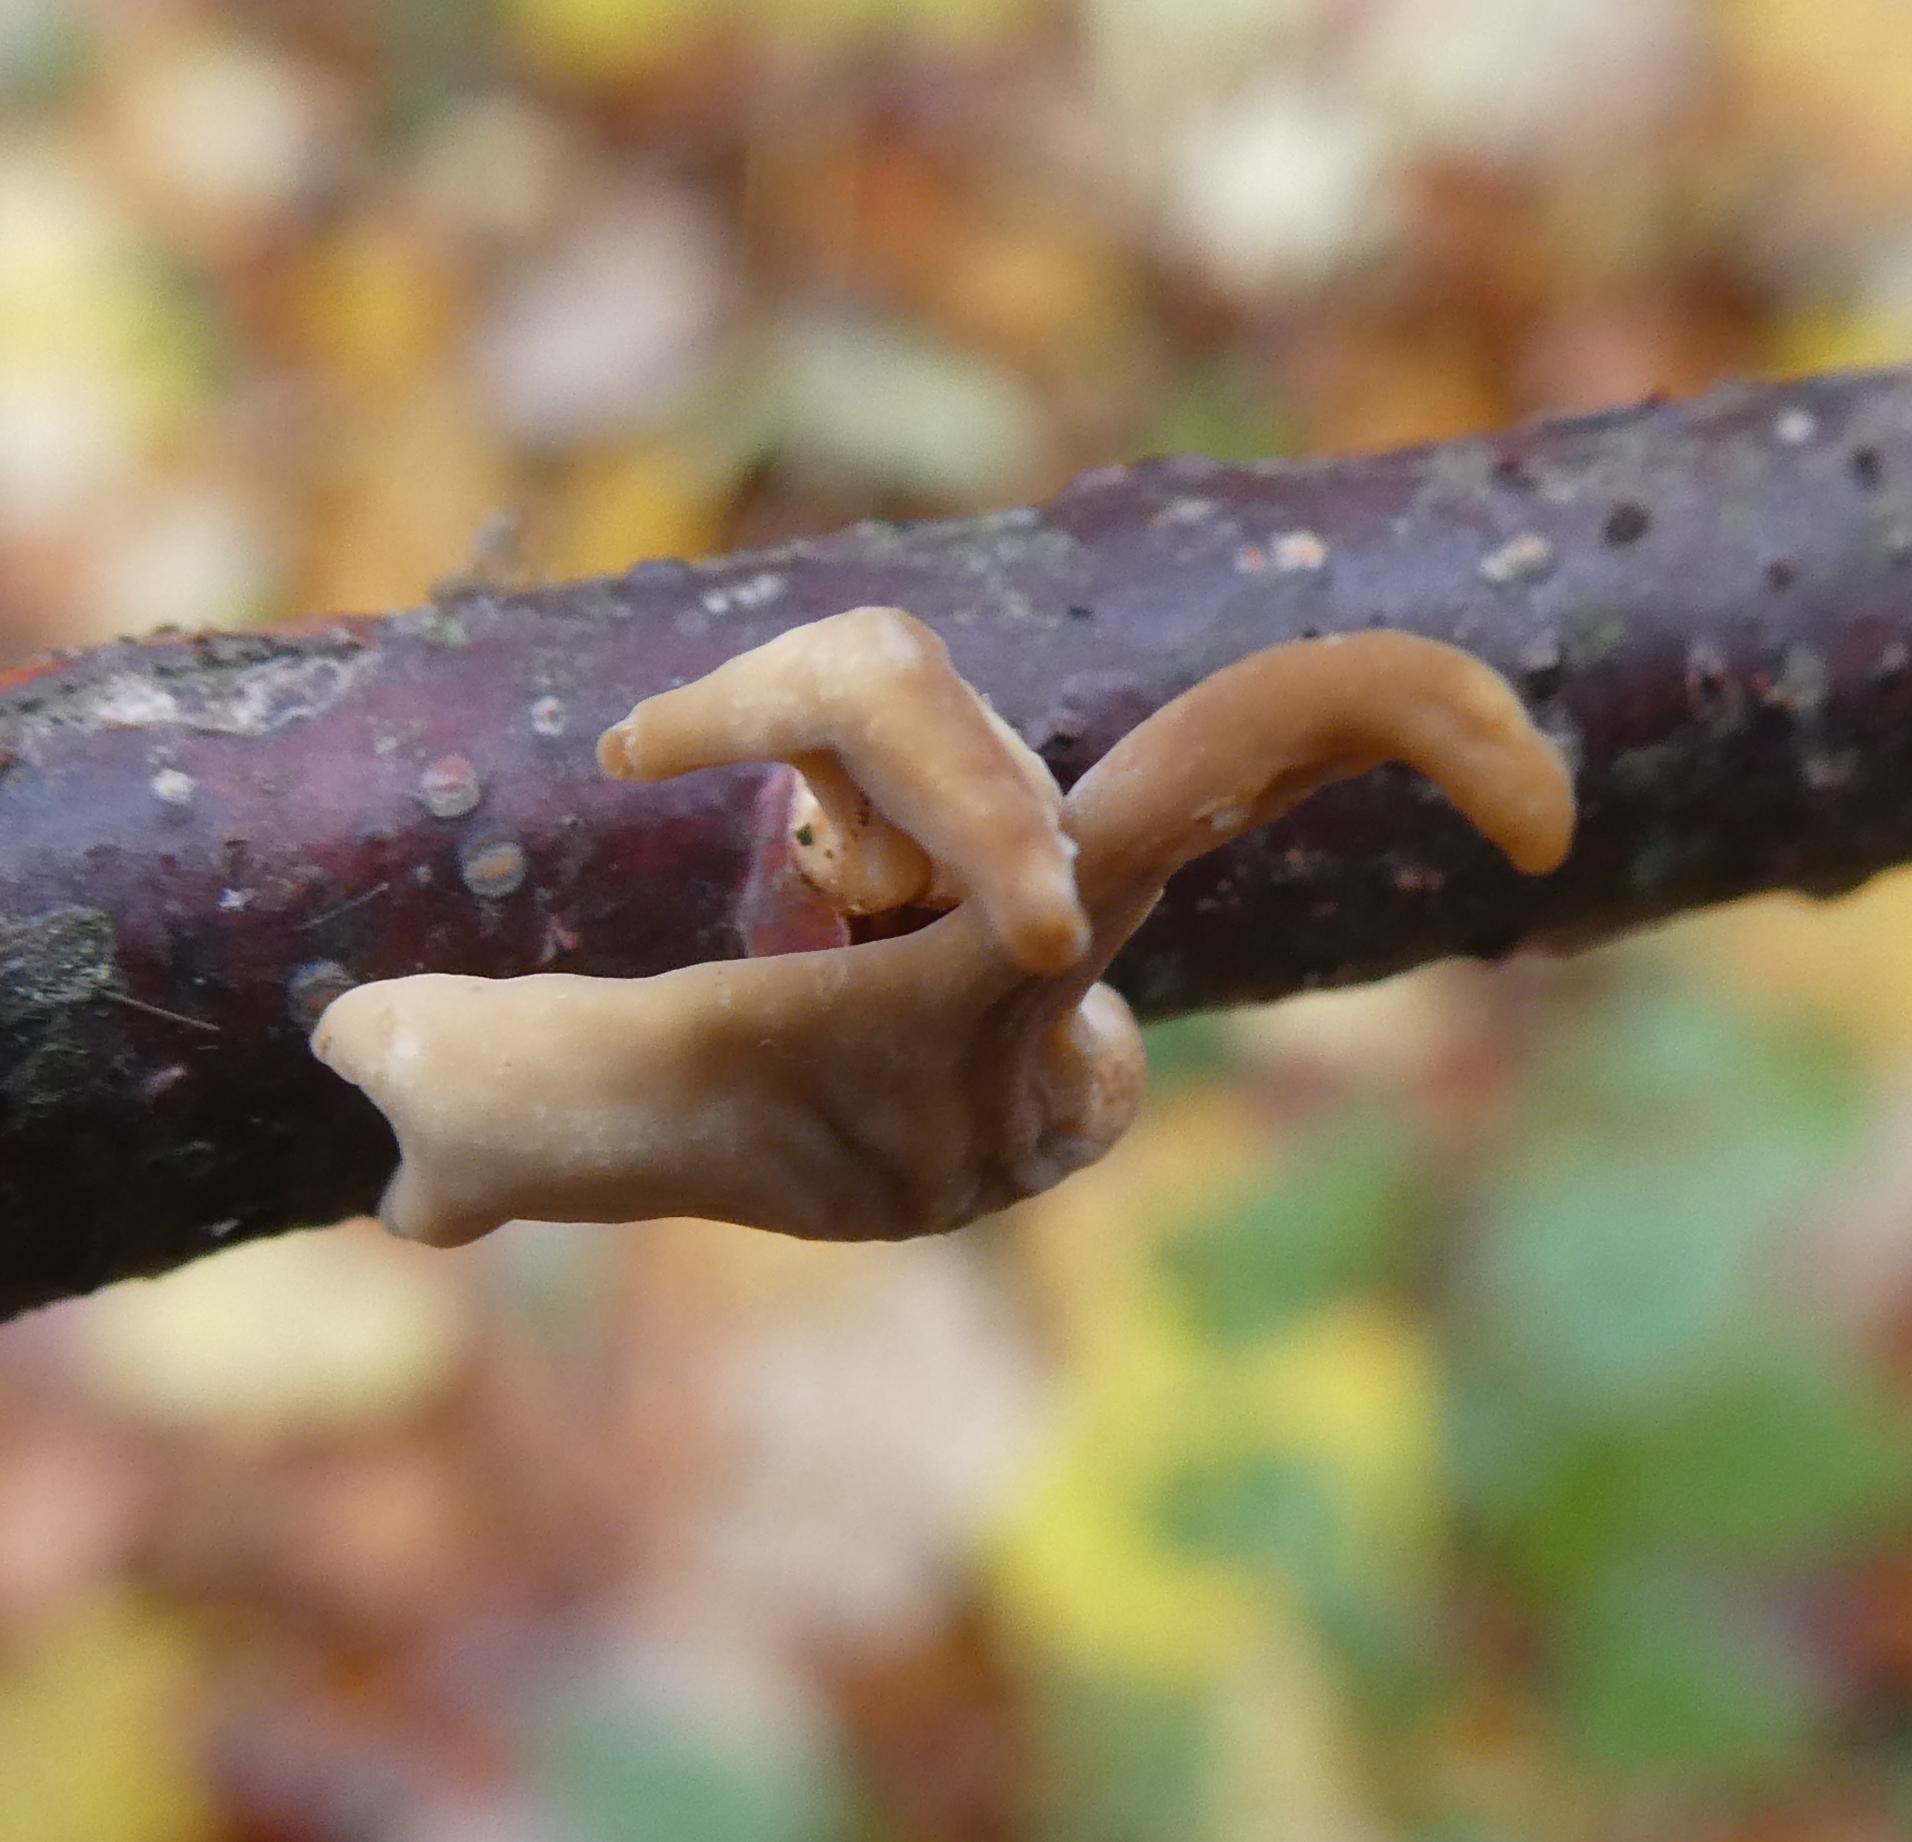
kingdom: Fungi
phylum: Basidiomycota
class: Agaricomycetes
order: Agaricales
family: Typhulaceae
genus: Typhula
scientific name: Typhula contorta
